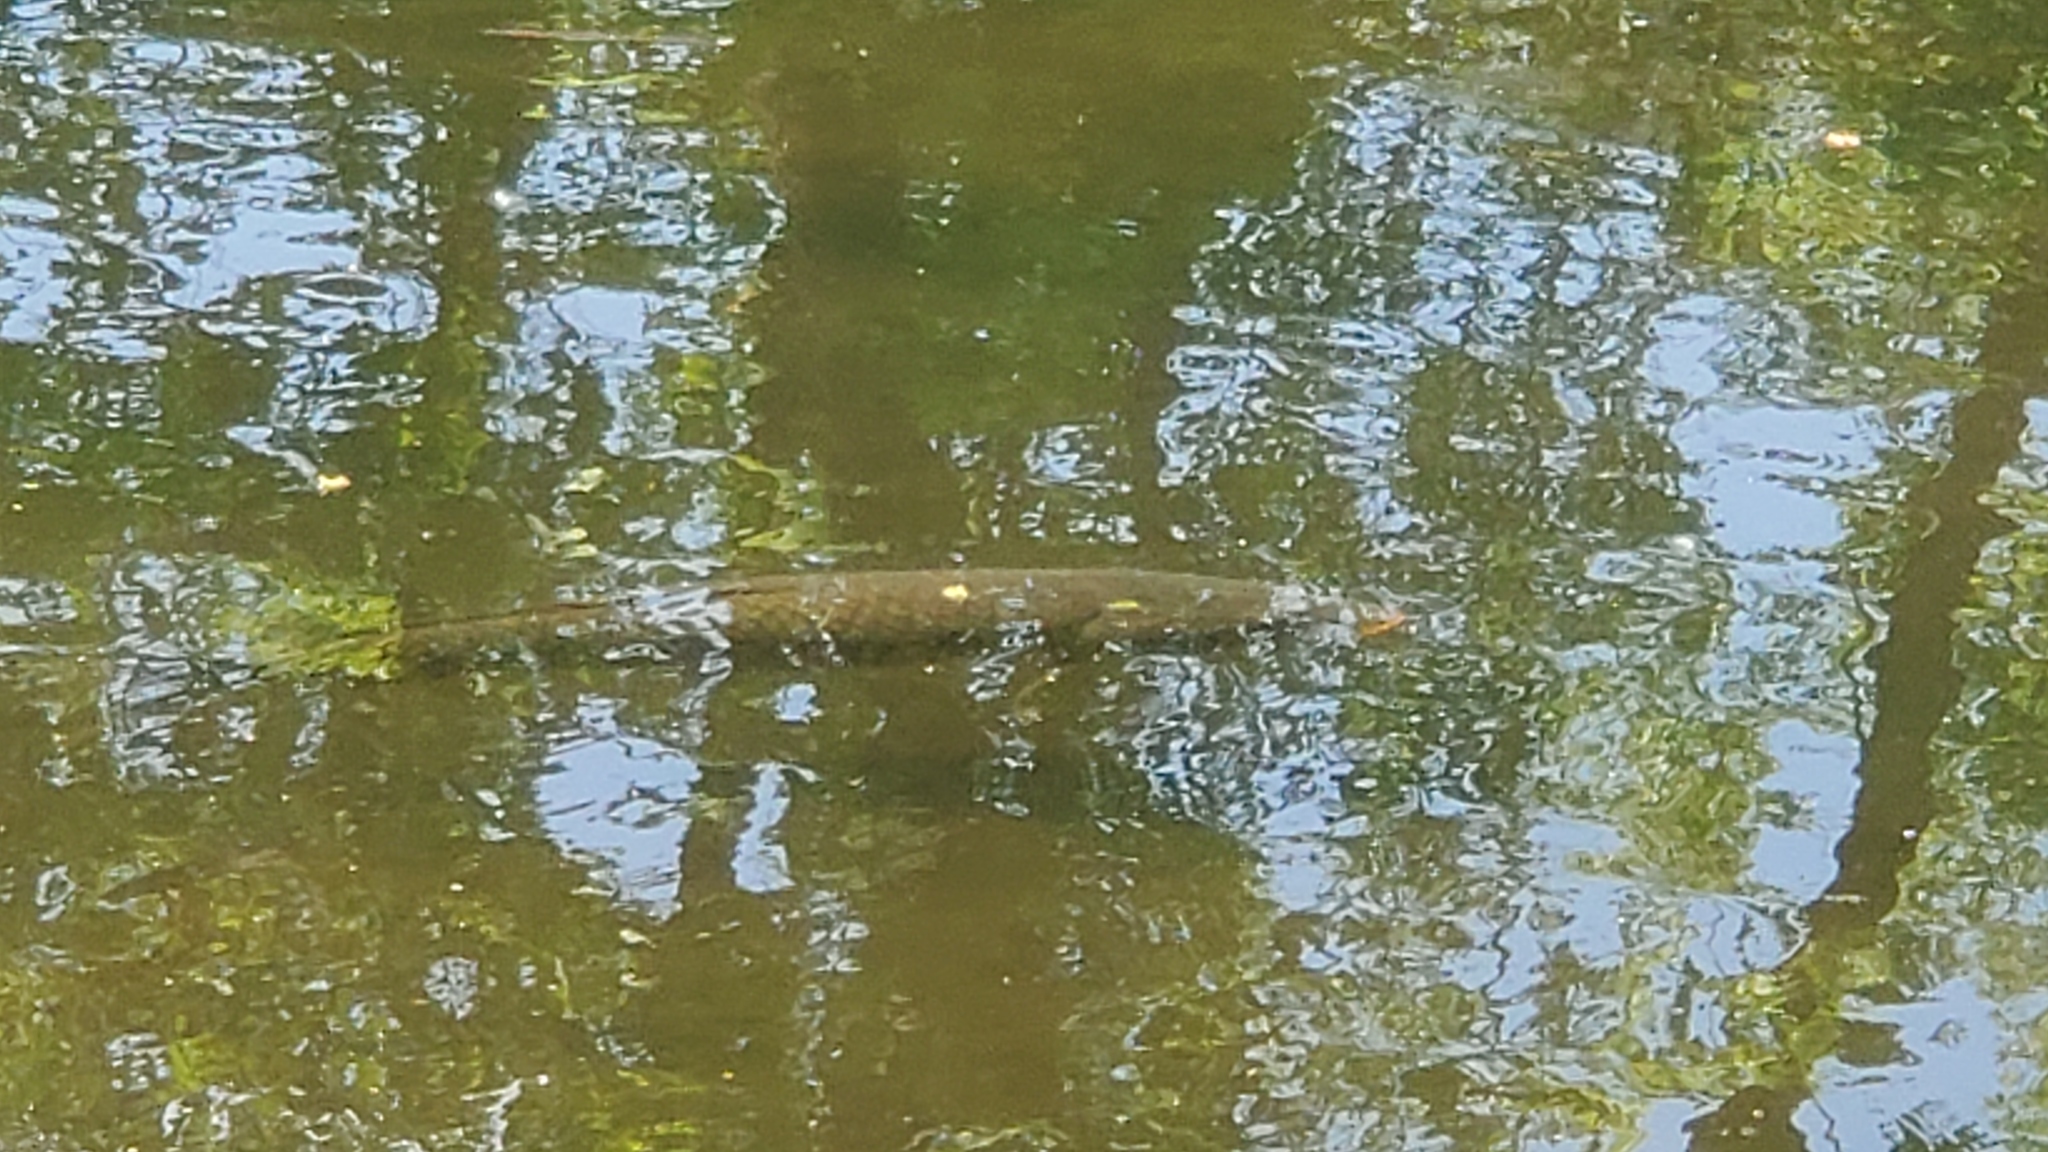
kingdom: Animalia
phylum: Chordata
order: Cypriniformes
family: Cyprinidae
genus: Cyprinus
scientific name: Cyprinus carpio
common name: Common carp
